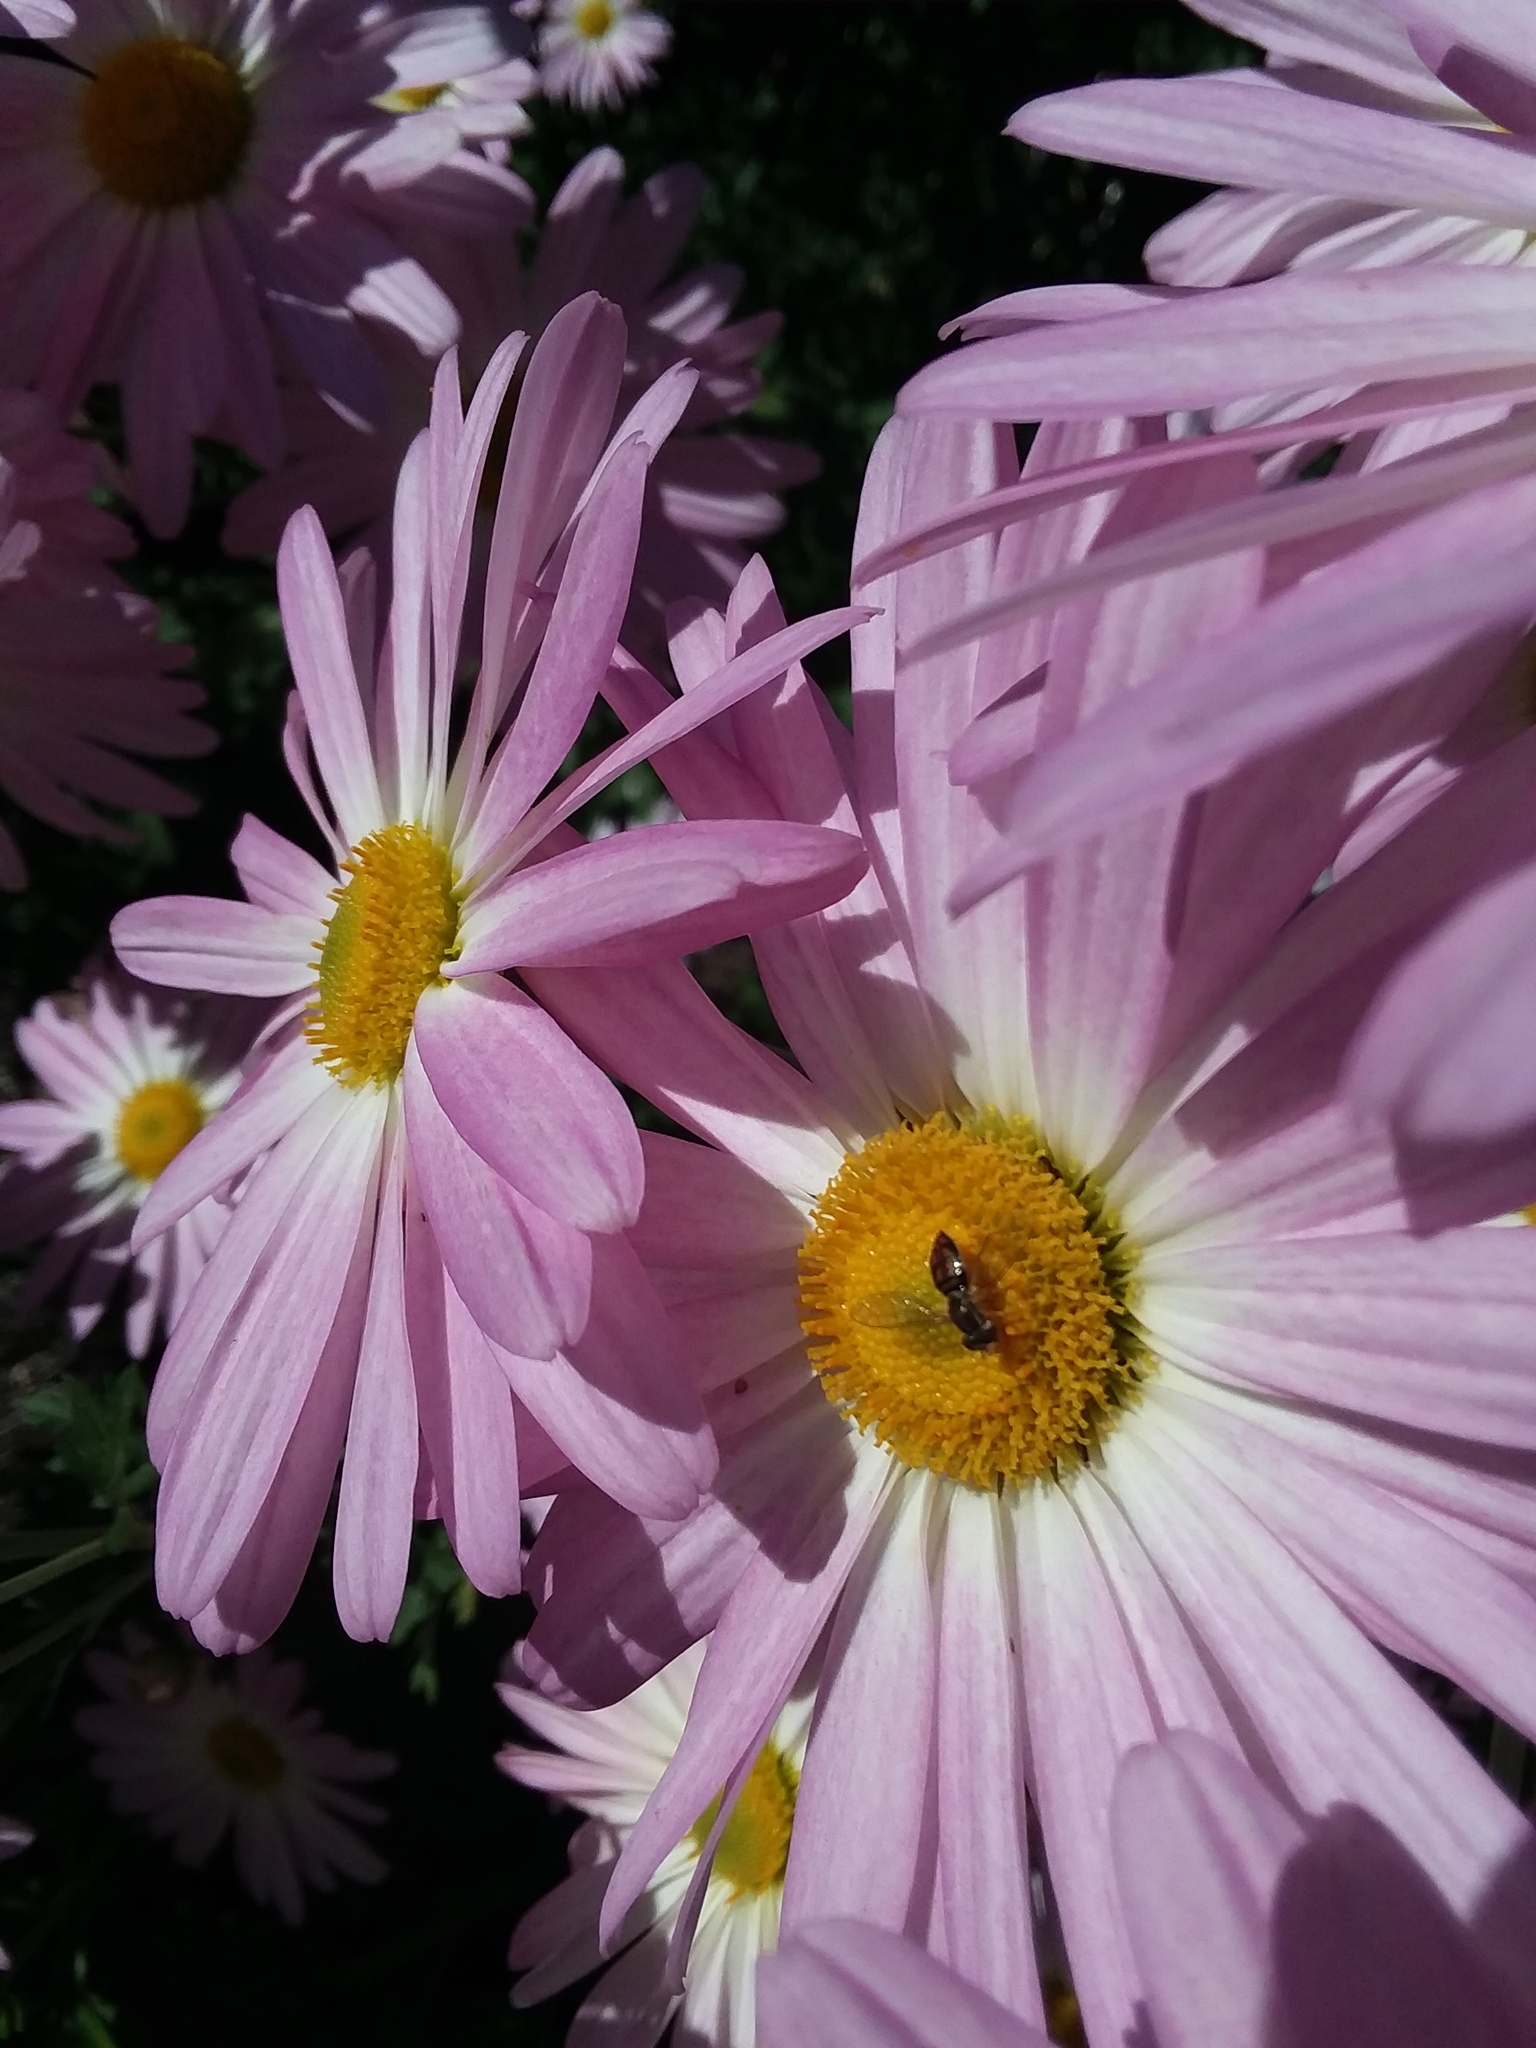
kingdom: Animalia
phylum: Arthropoda
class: Insecta
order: Diptera
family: Syrphidae
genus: Toxomerus
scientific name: Toxomerus marginatus
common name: Syrphid fly
